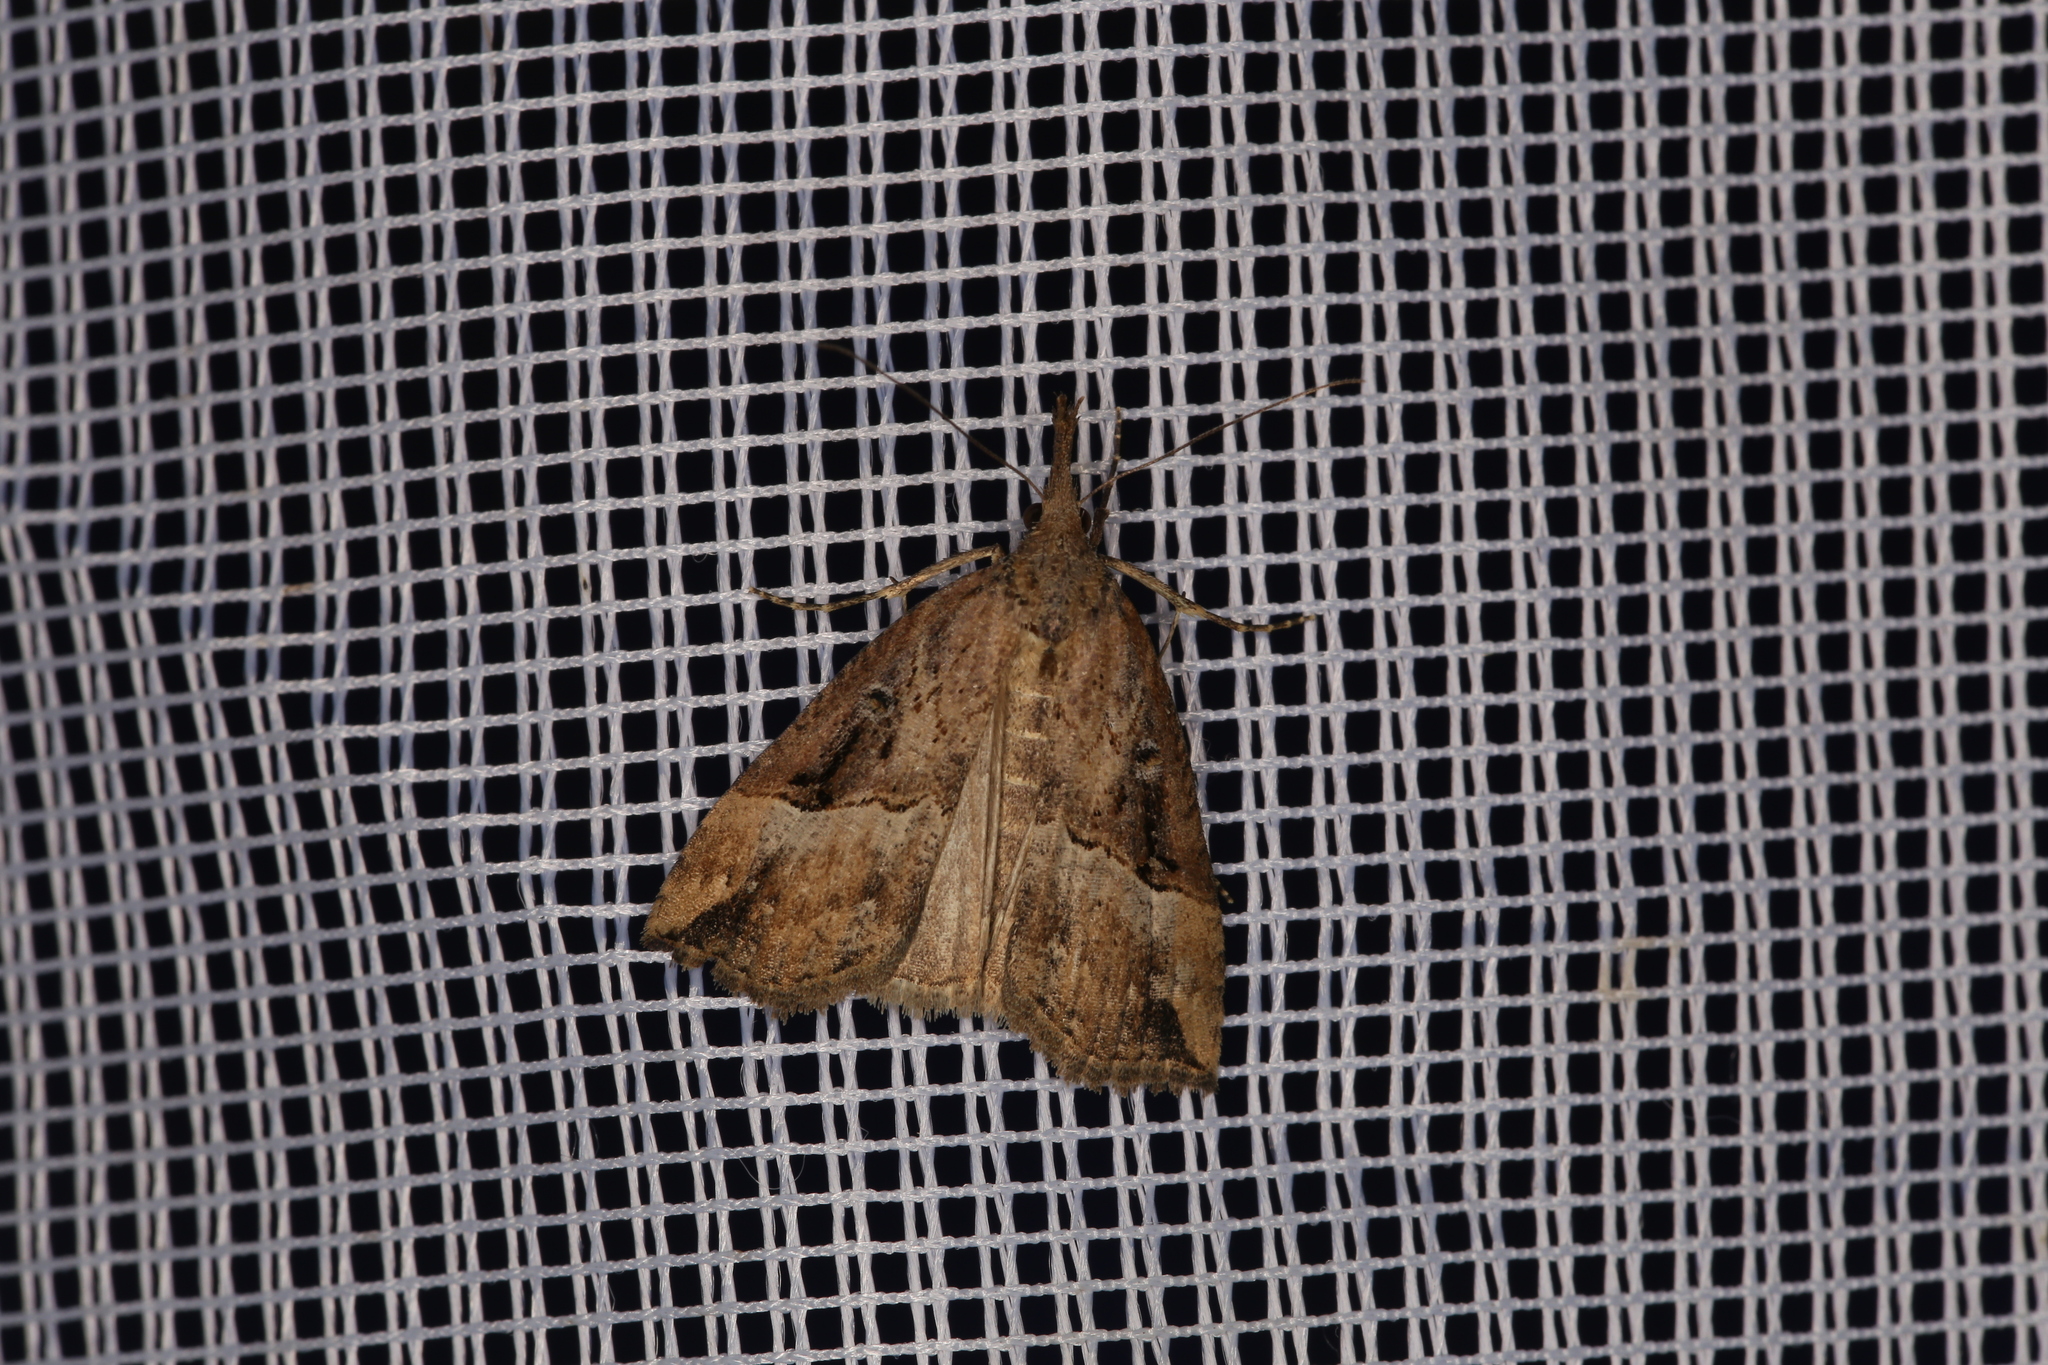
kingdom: Animalia
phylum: Arthropoda
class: Insecta
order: Lepidoptera
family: Erebidae
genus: Hypena
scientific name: Hypena rostralis
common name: Buttoned snout
